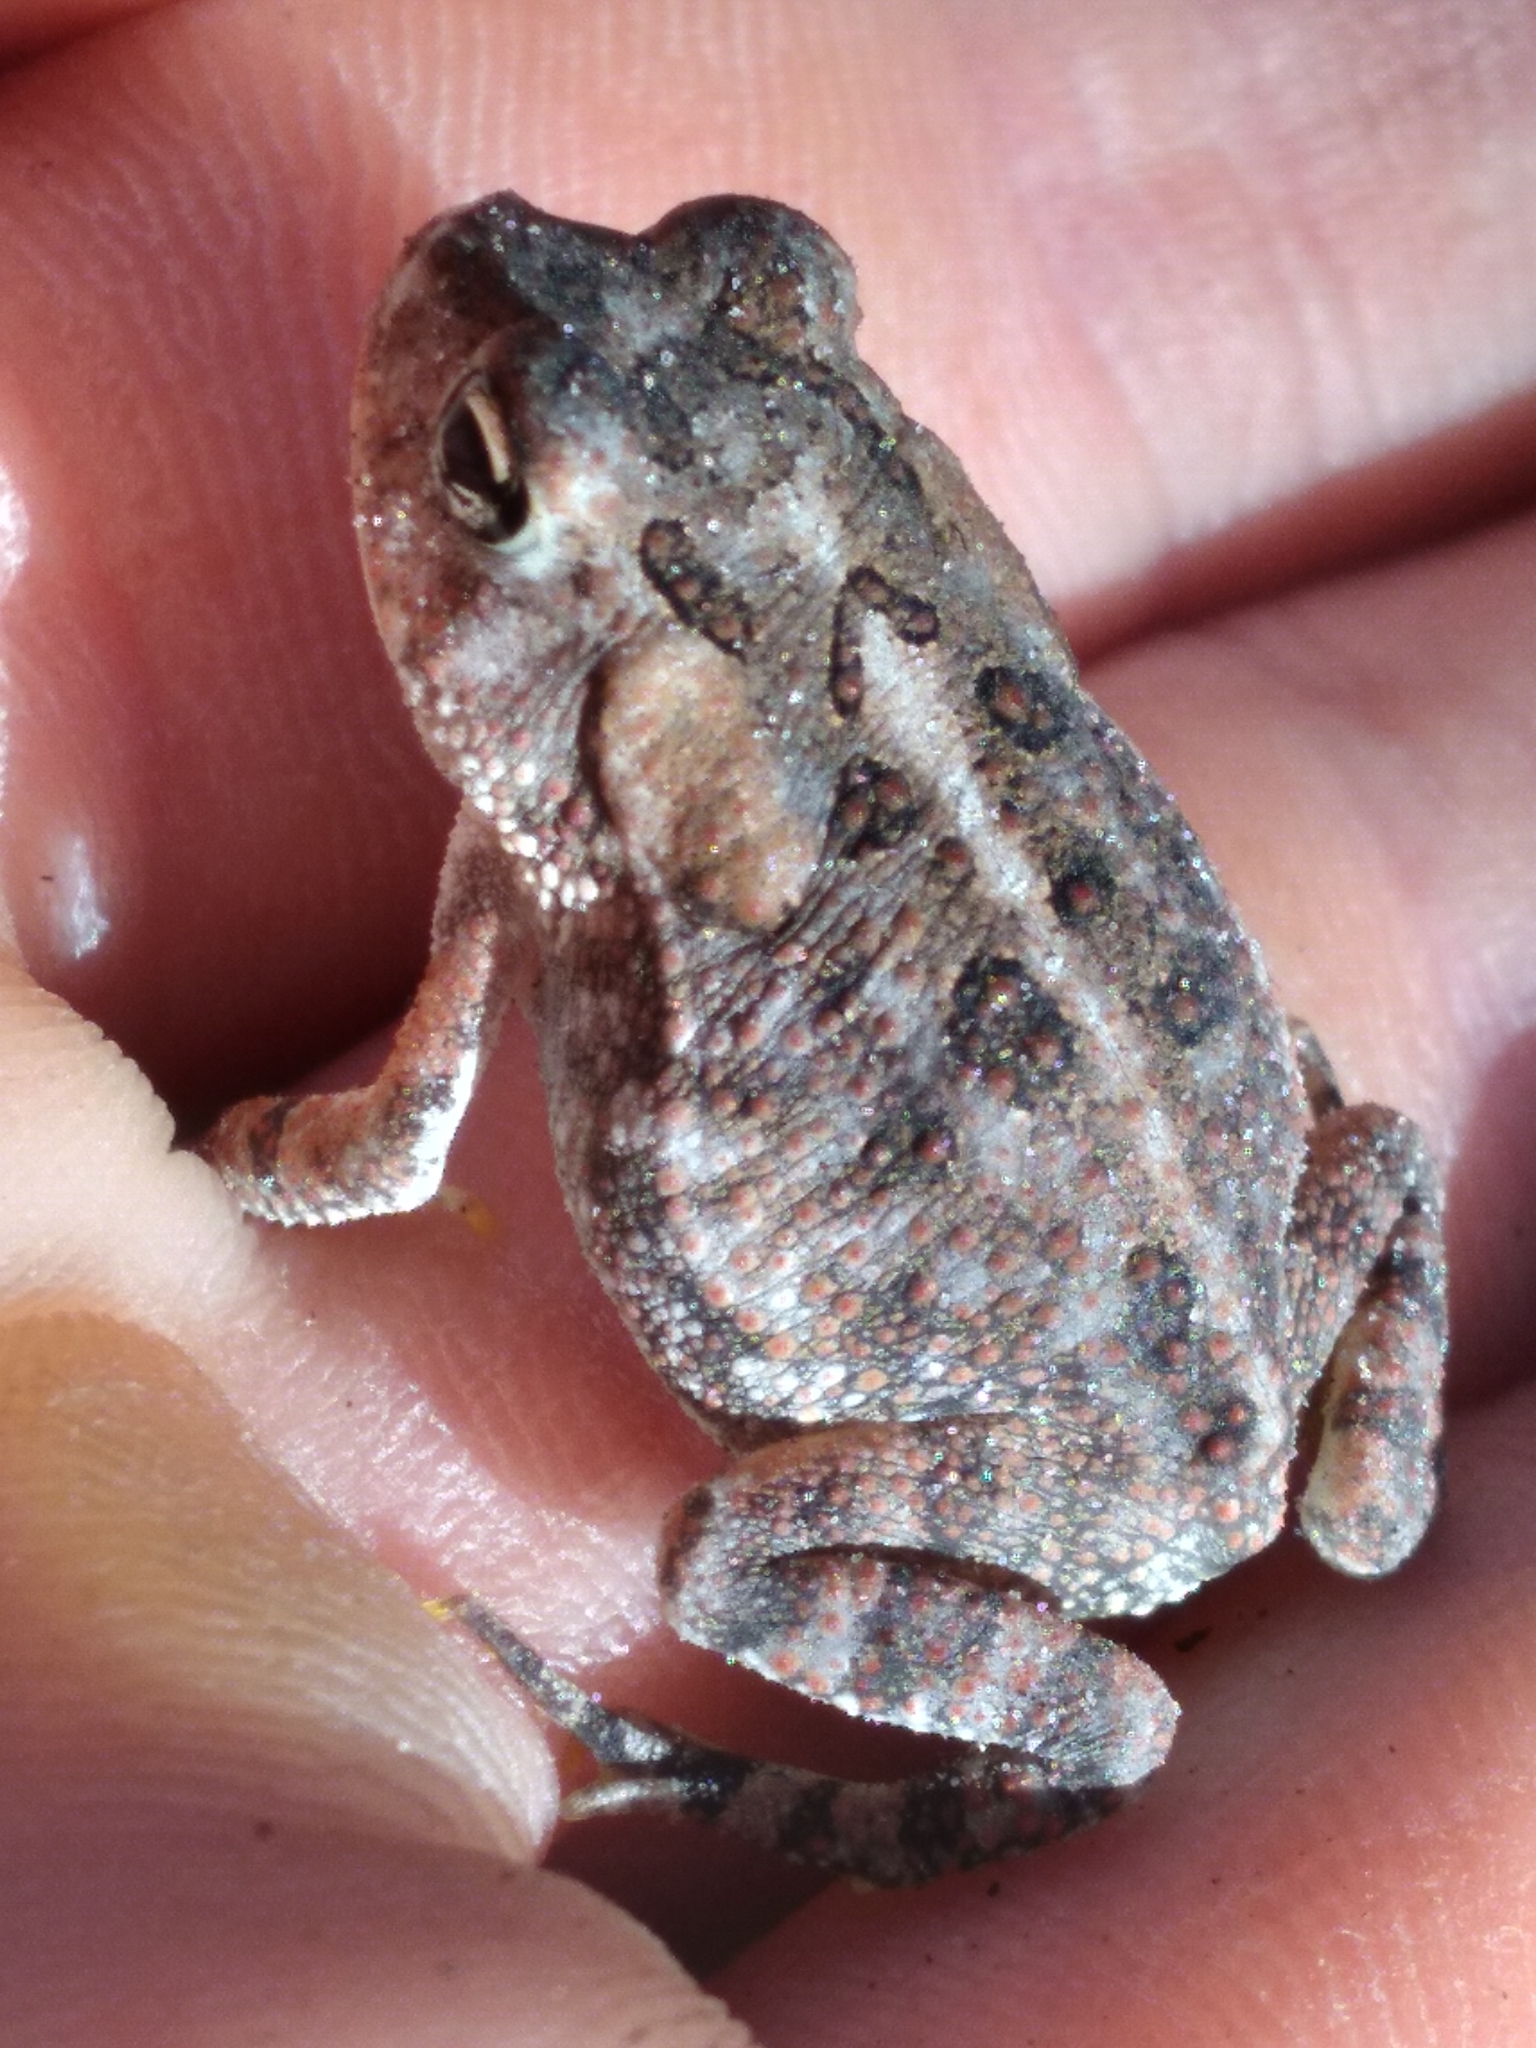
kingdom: Animalia
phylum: Chordata
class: Amphibia
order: Anura
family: Bufonidae
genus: Anaxyrus
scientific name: Anaxyrus terrestris
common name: Southern toad
